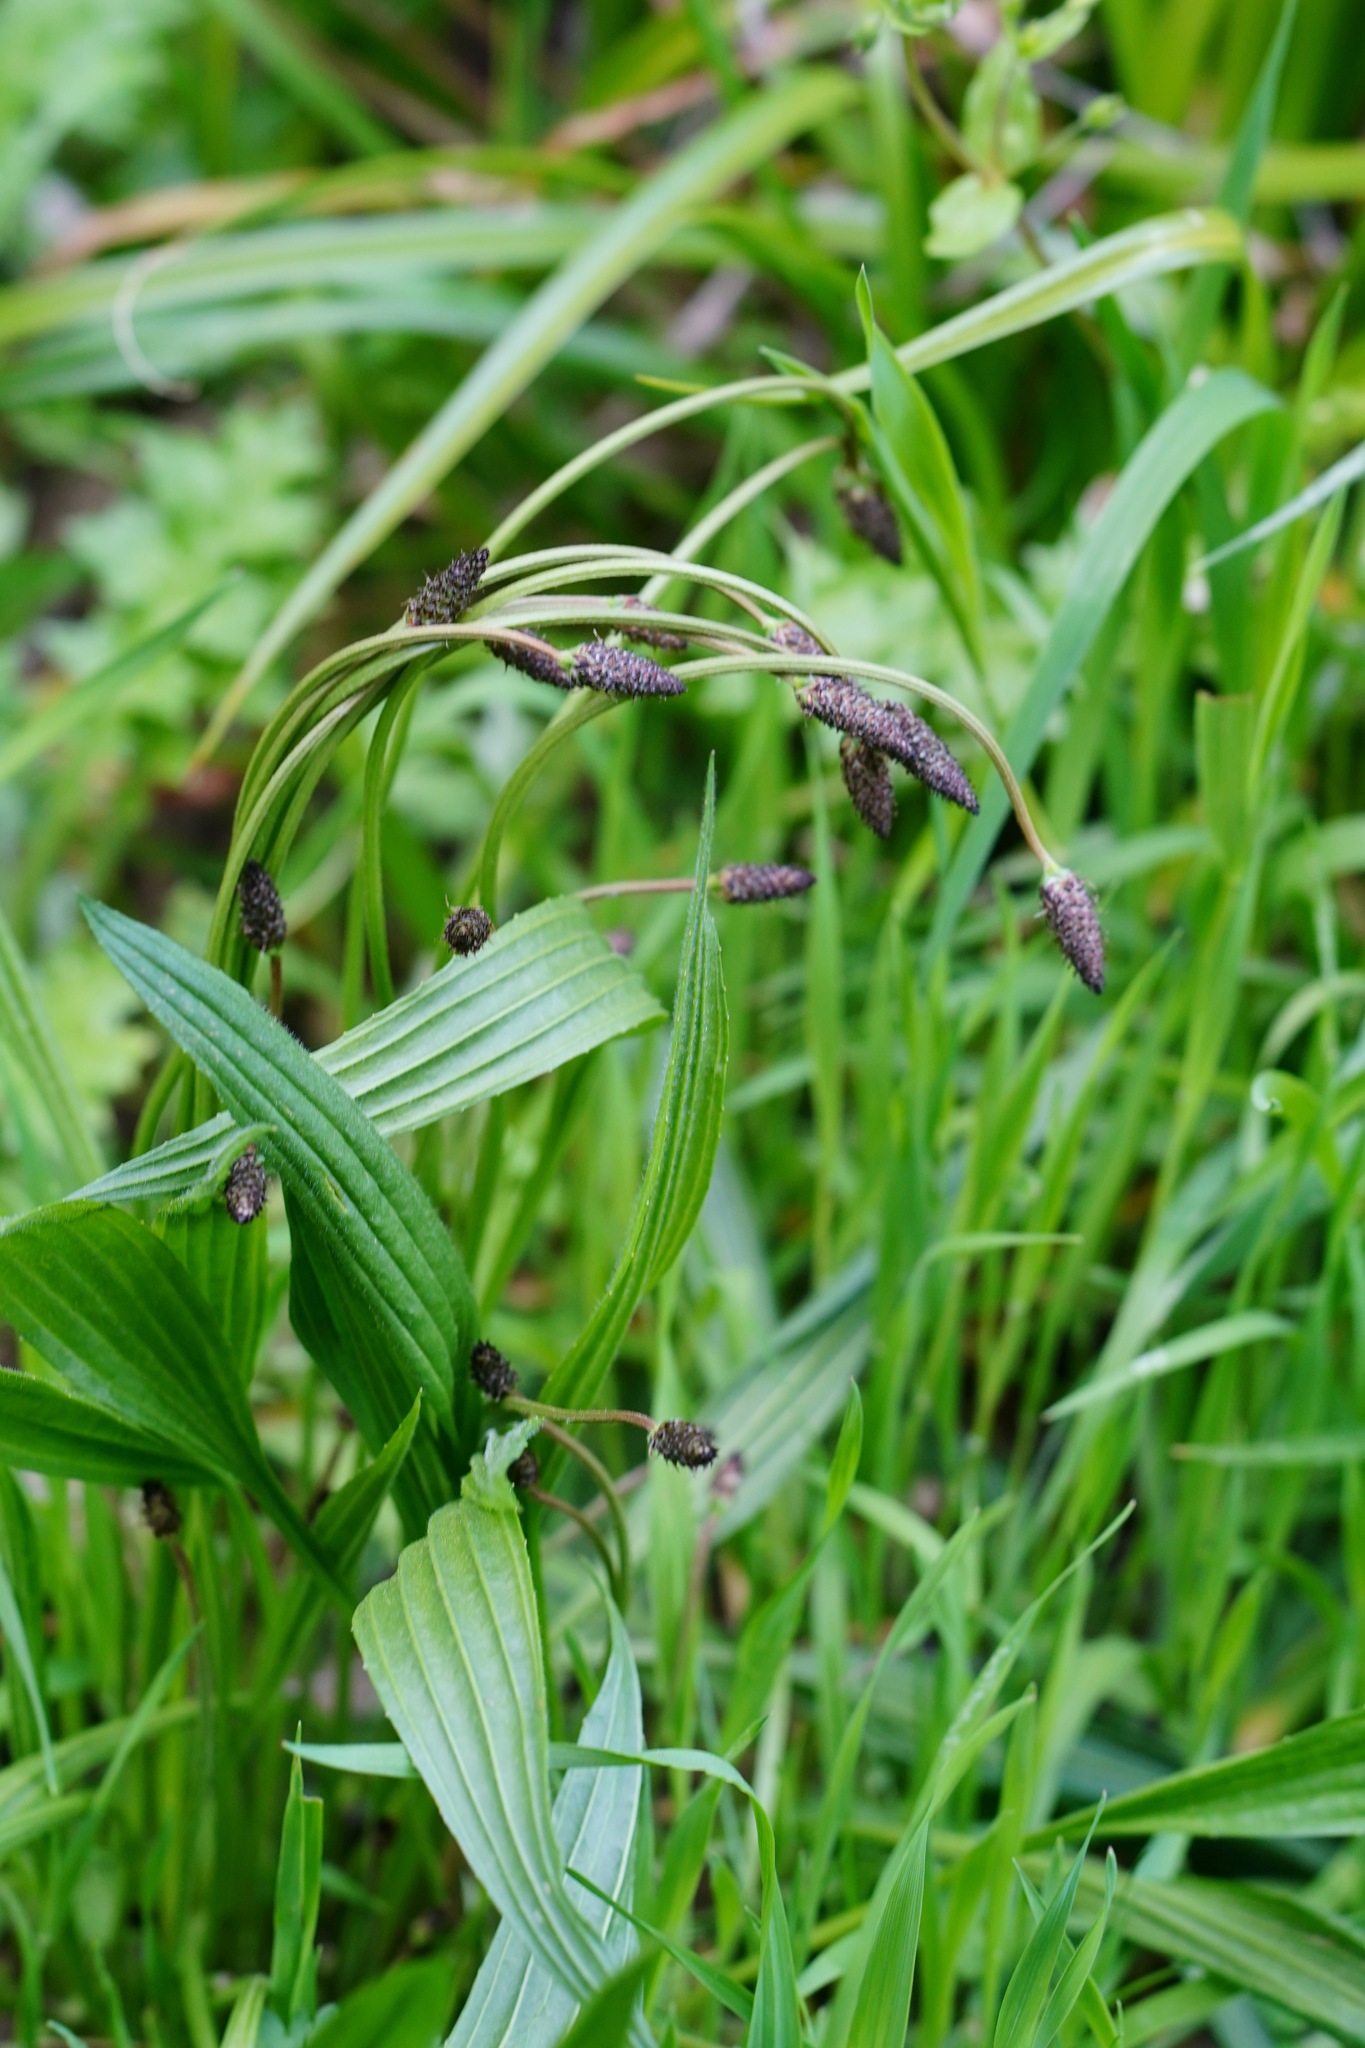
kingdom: Plantae
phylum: Tracheophyta
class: Magnoliopsida
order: Lamiales
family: Plantaginaceae
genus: Plantago
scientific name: Plantago lanceolata
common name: Ribwort plantain
